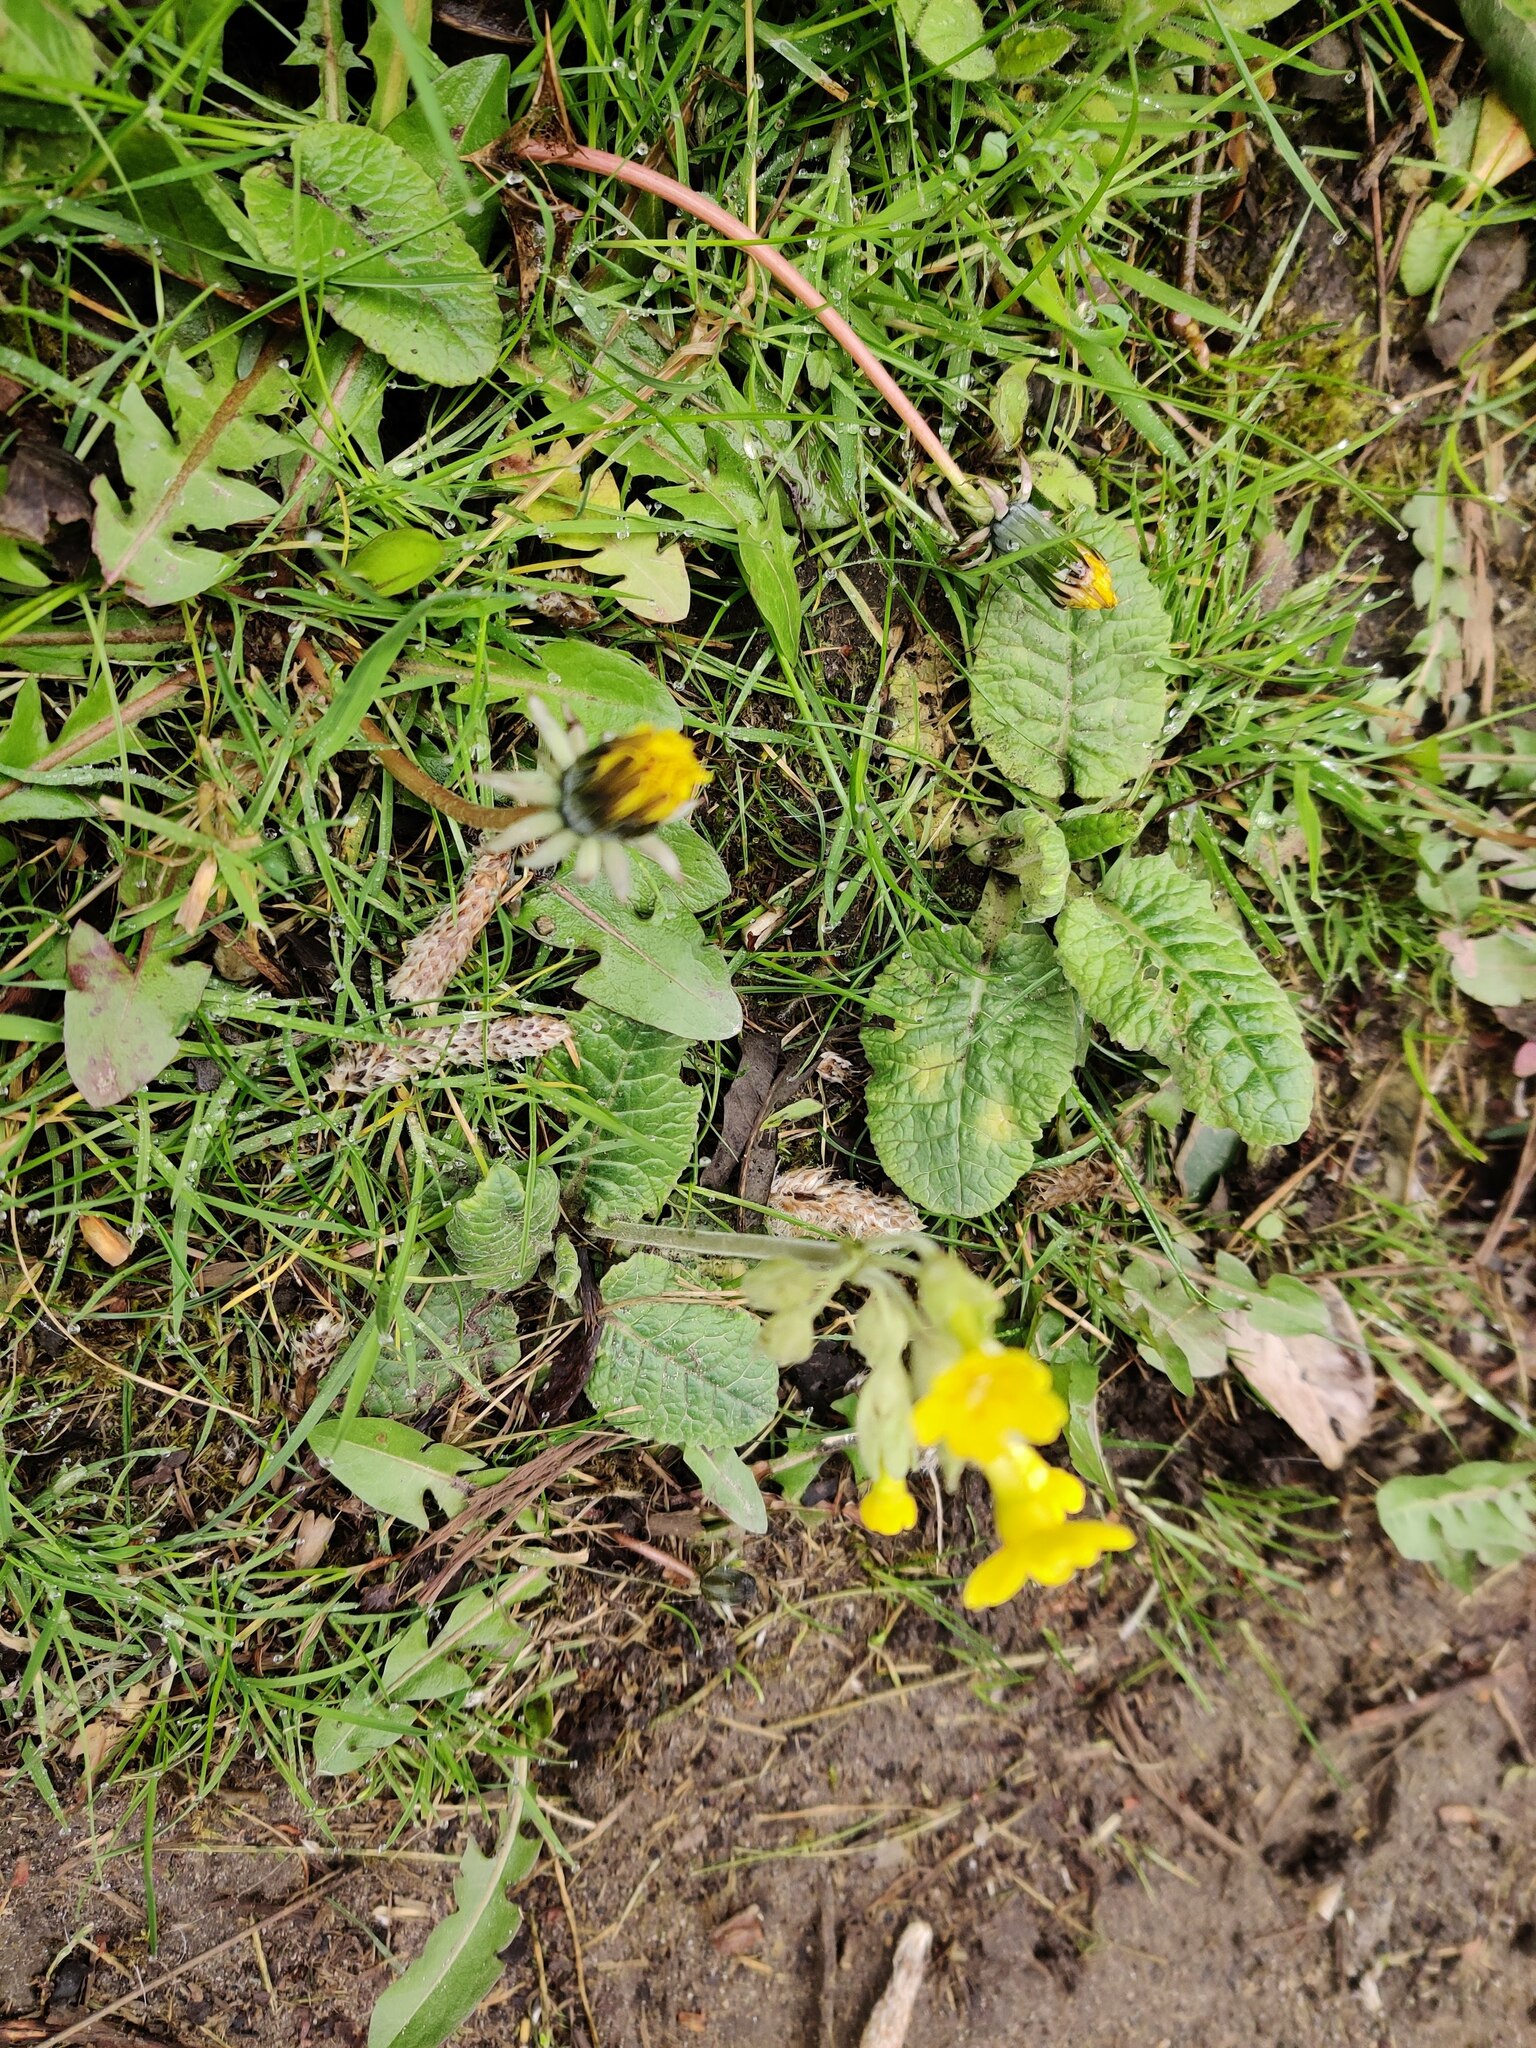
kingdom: Plantae
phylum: Tracheophyta
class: Magnoliopsida
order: Ericales
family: Primulaceae
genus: Primula
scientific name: Primula veris
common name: Cowslip
